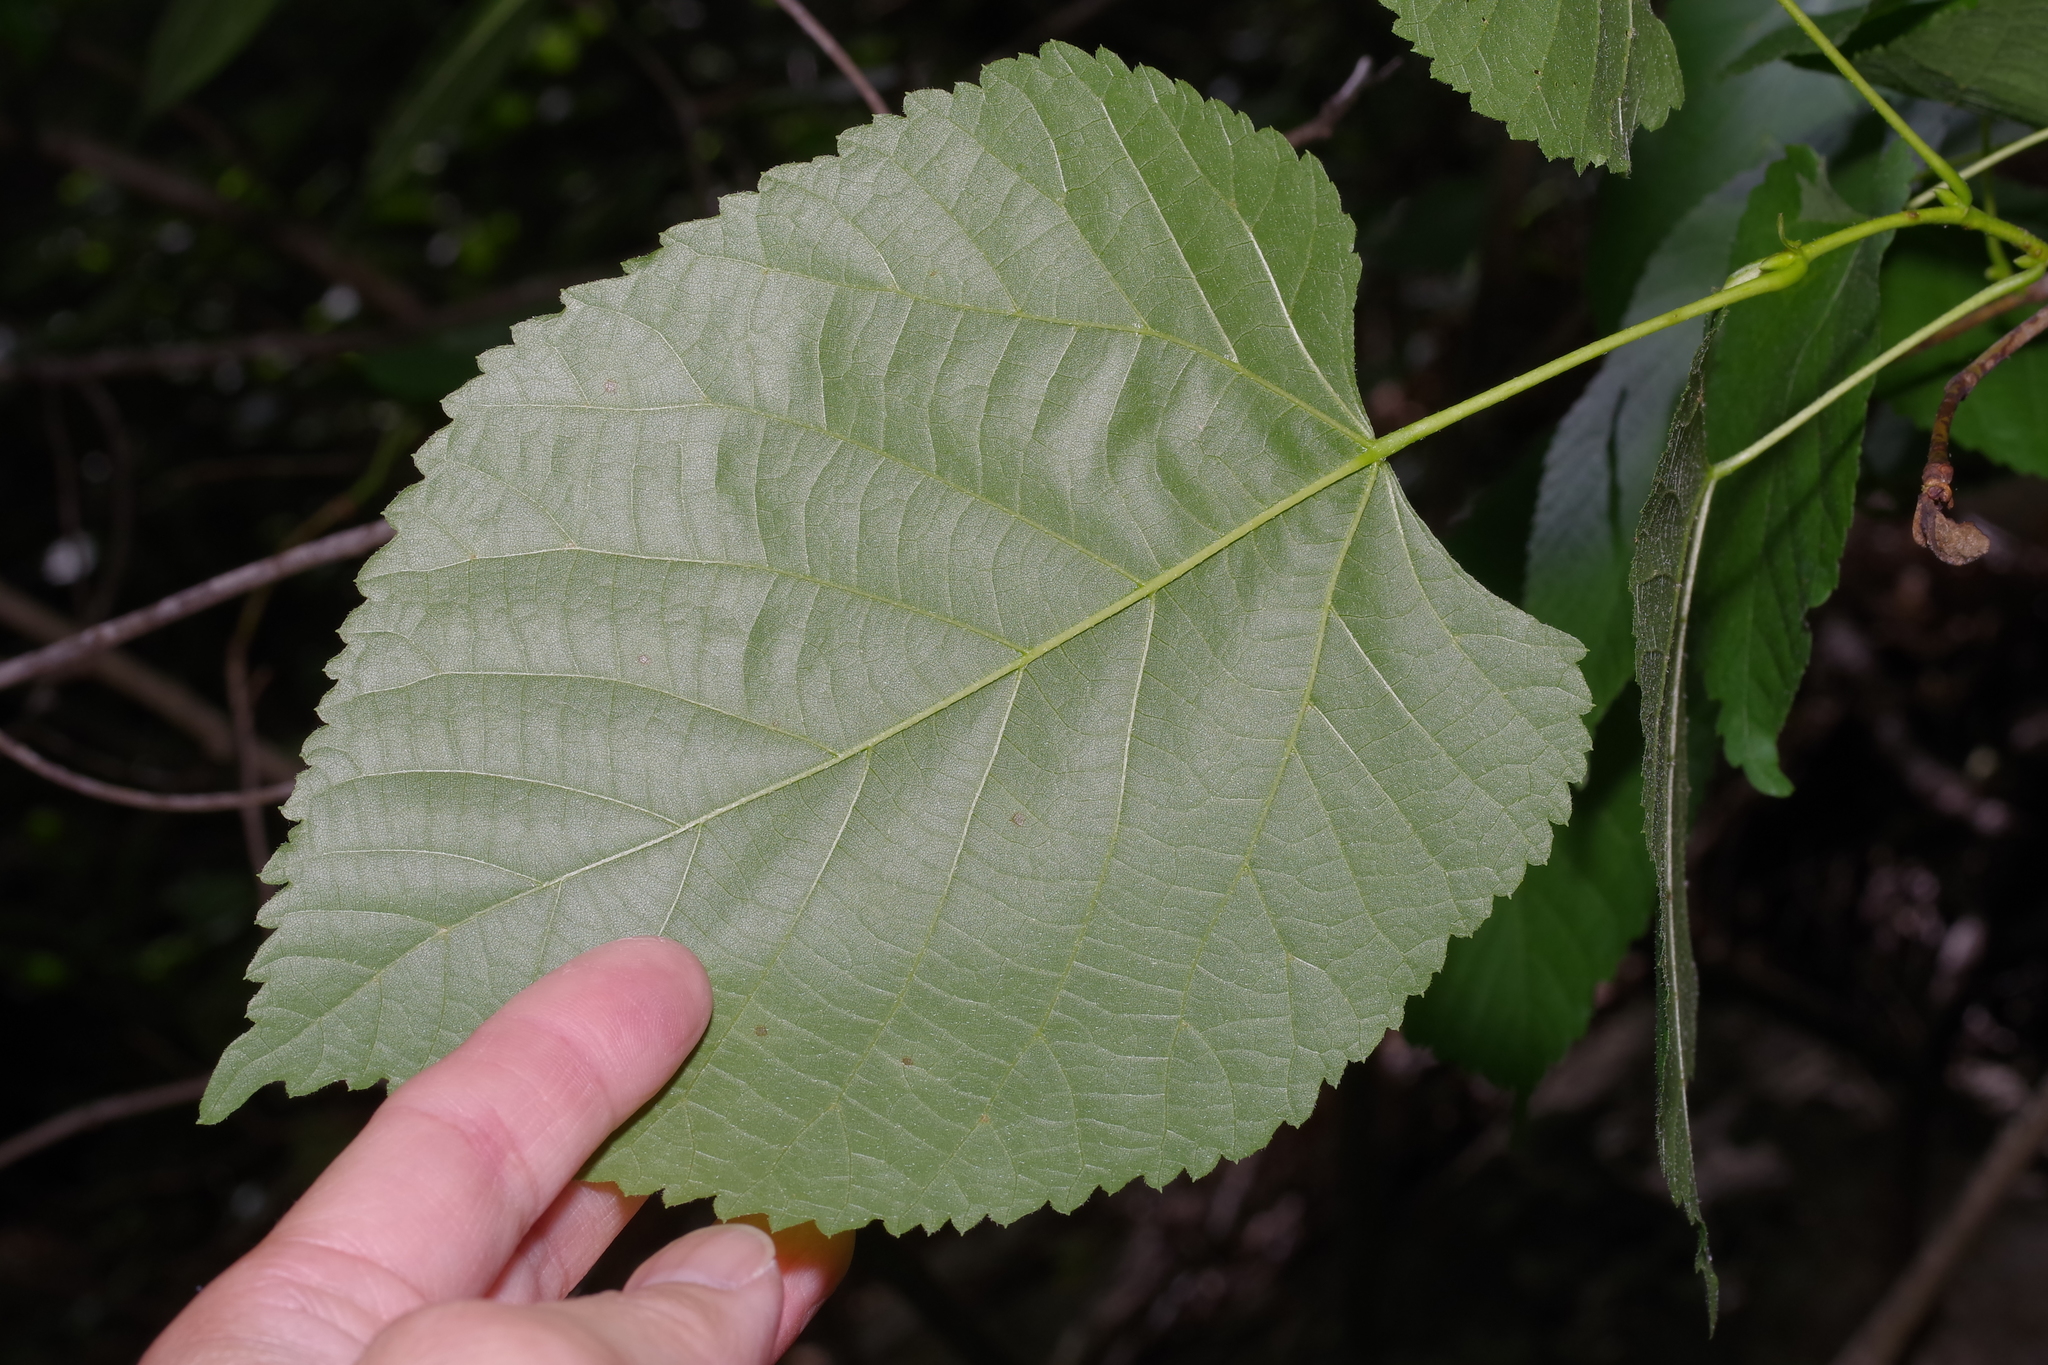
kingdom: Plantae
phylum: Tracheophyta
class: Magnoliopsida
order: Malvales
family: Malvaceae
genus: Tilia
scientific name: Tilia americana
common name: Basswood
